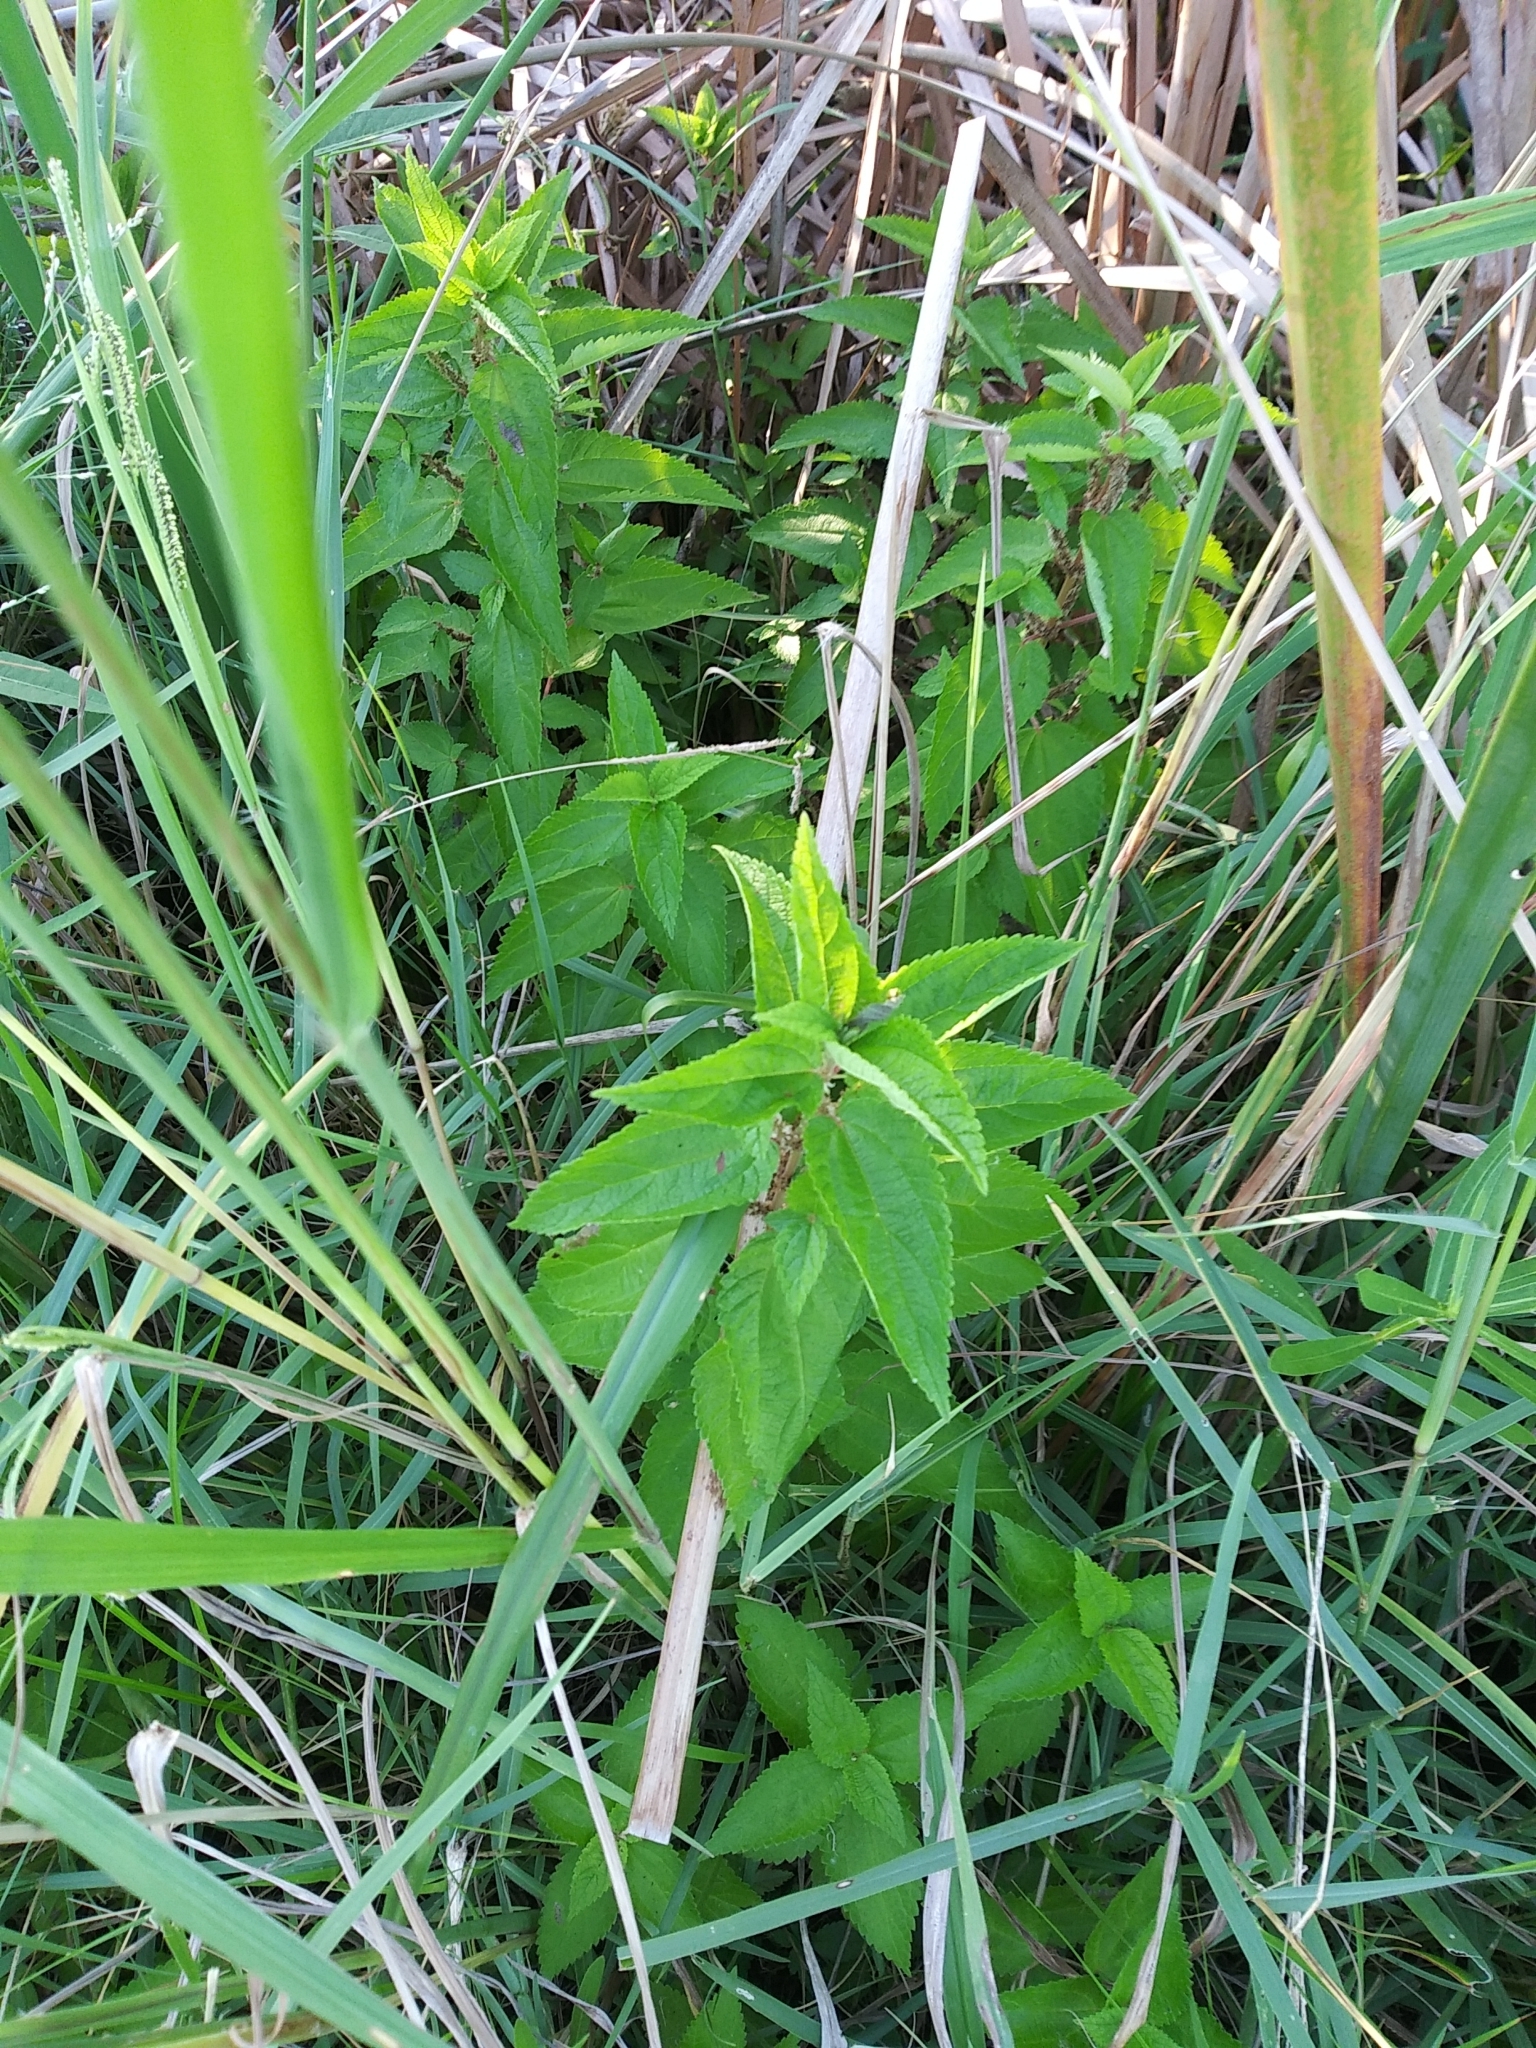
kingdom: Plantae
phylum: Tracheophyta
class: Magnoliopsida
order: Rosales
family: Urticaceae
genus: Boehmeria
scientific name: Boehmeria cylindrica
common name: Bog-hemp
